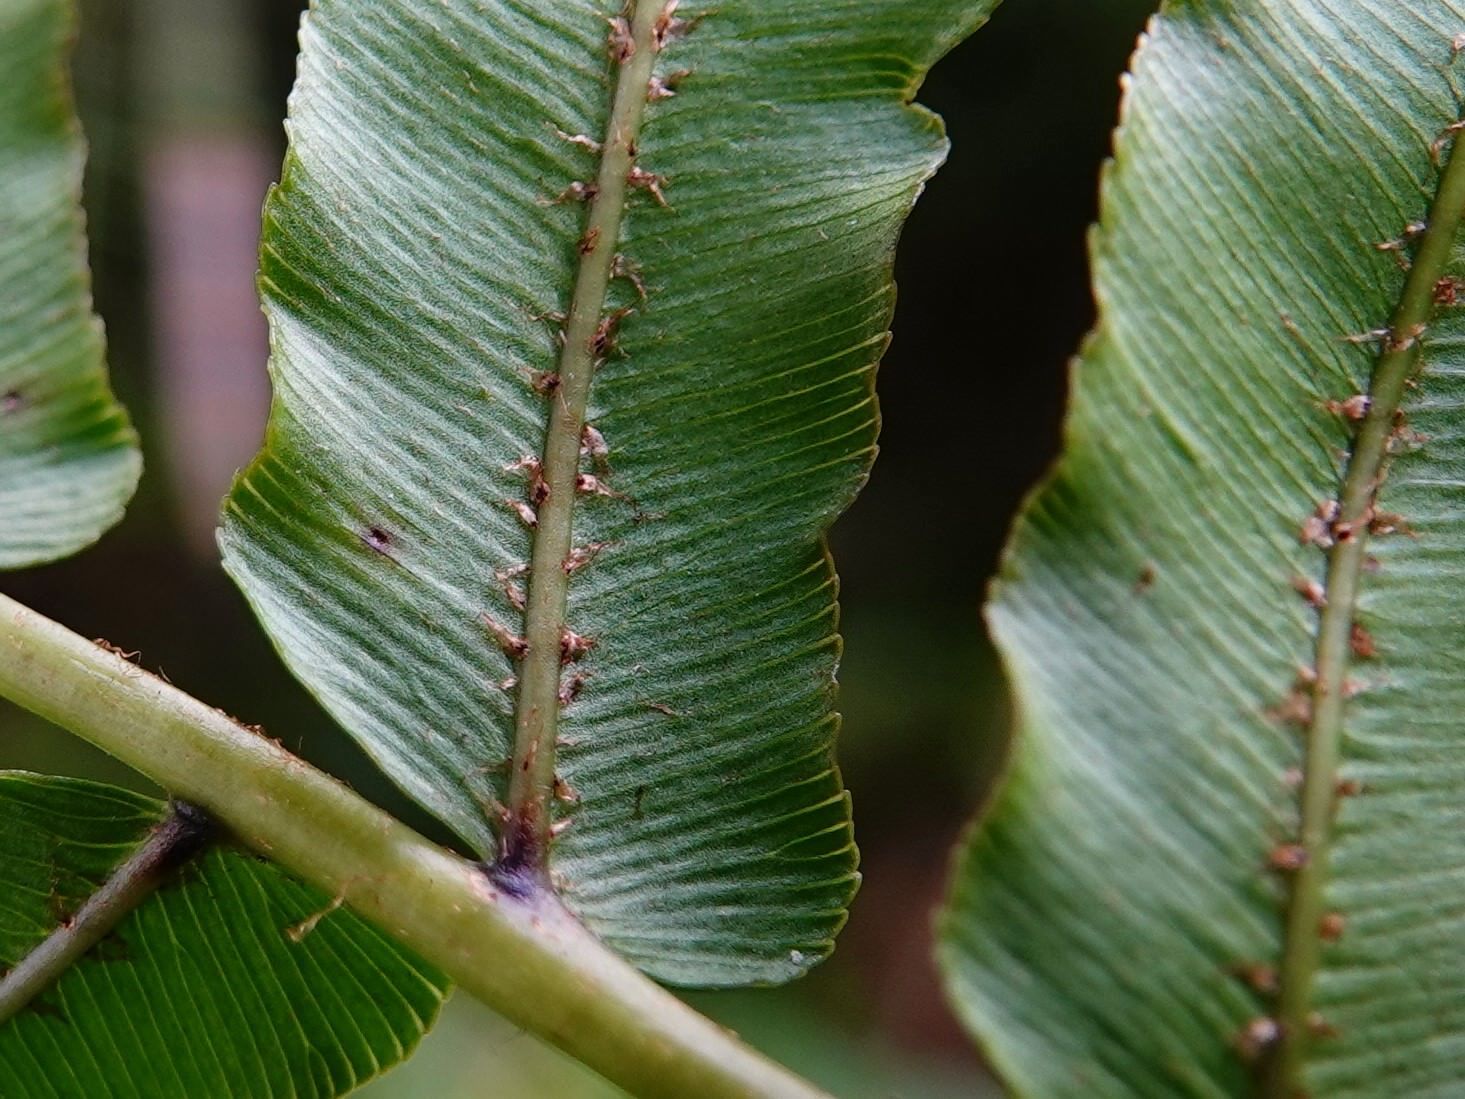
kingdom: Plantae
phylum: Tracheophyta
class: Polypodiopsida
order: Polypodiales
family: Blechnaceae
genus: Parablechnum
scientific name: Parablechnum novae-zelandiae
